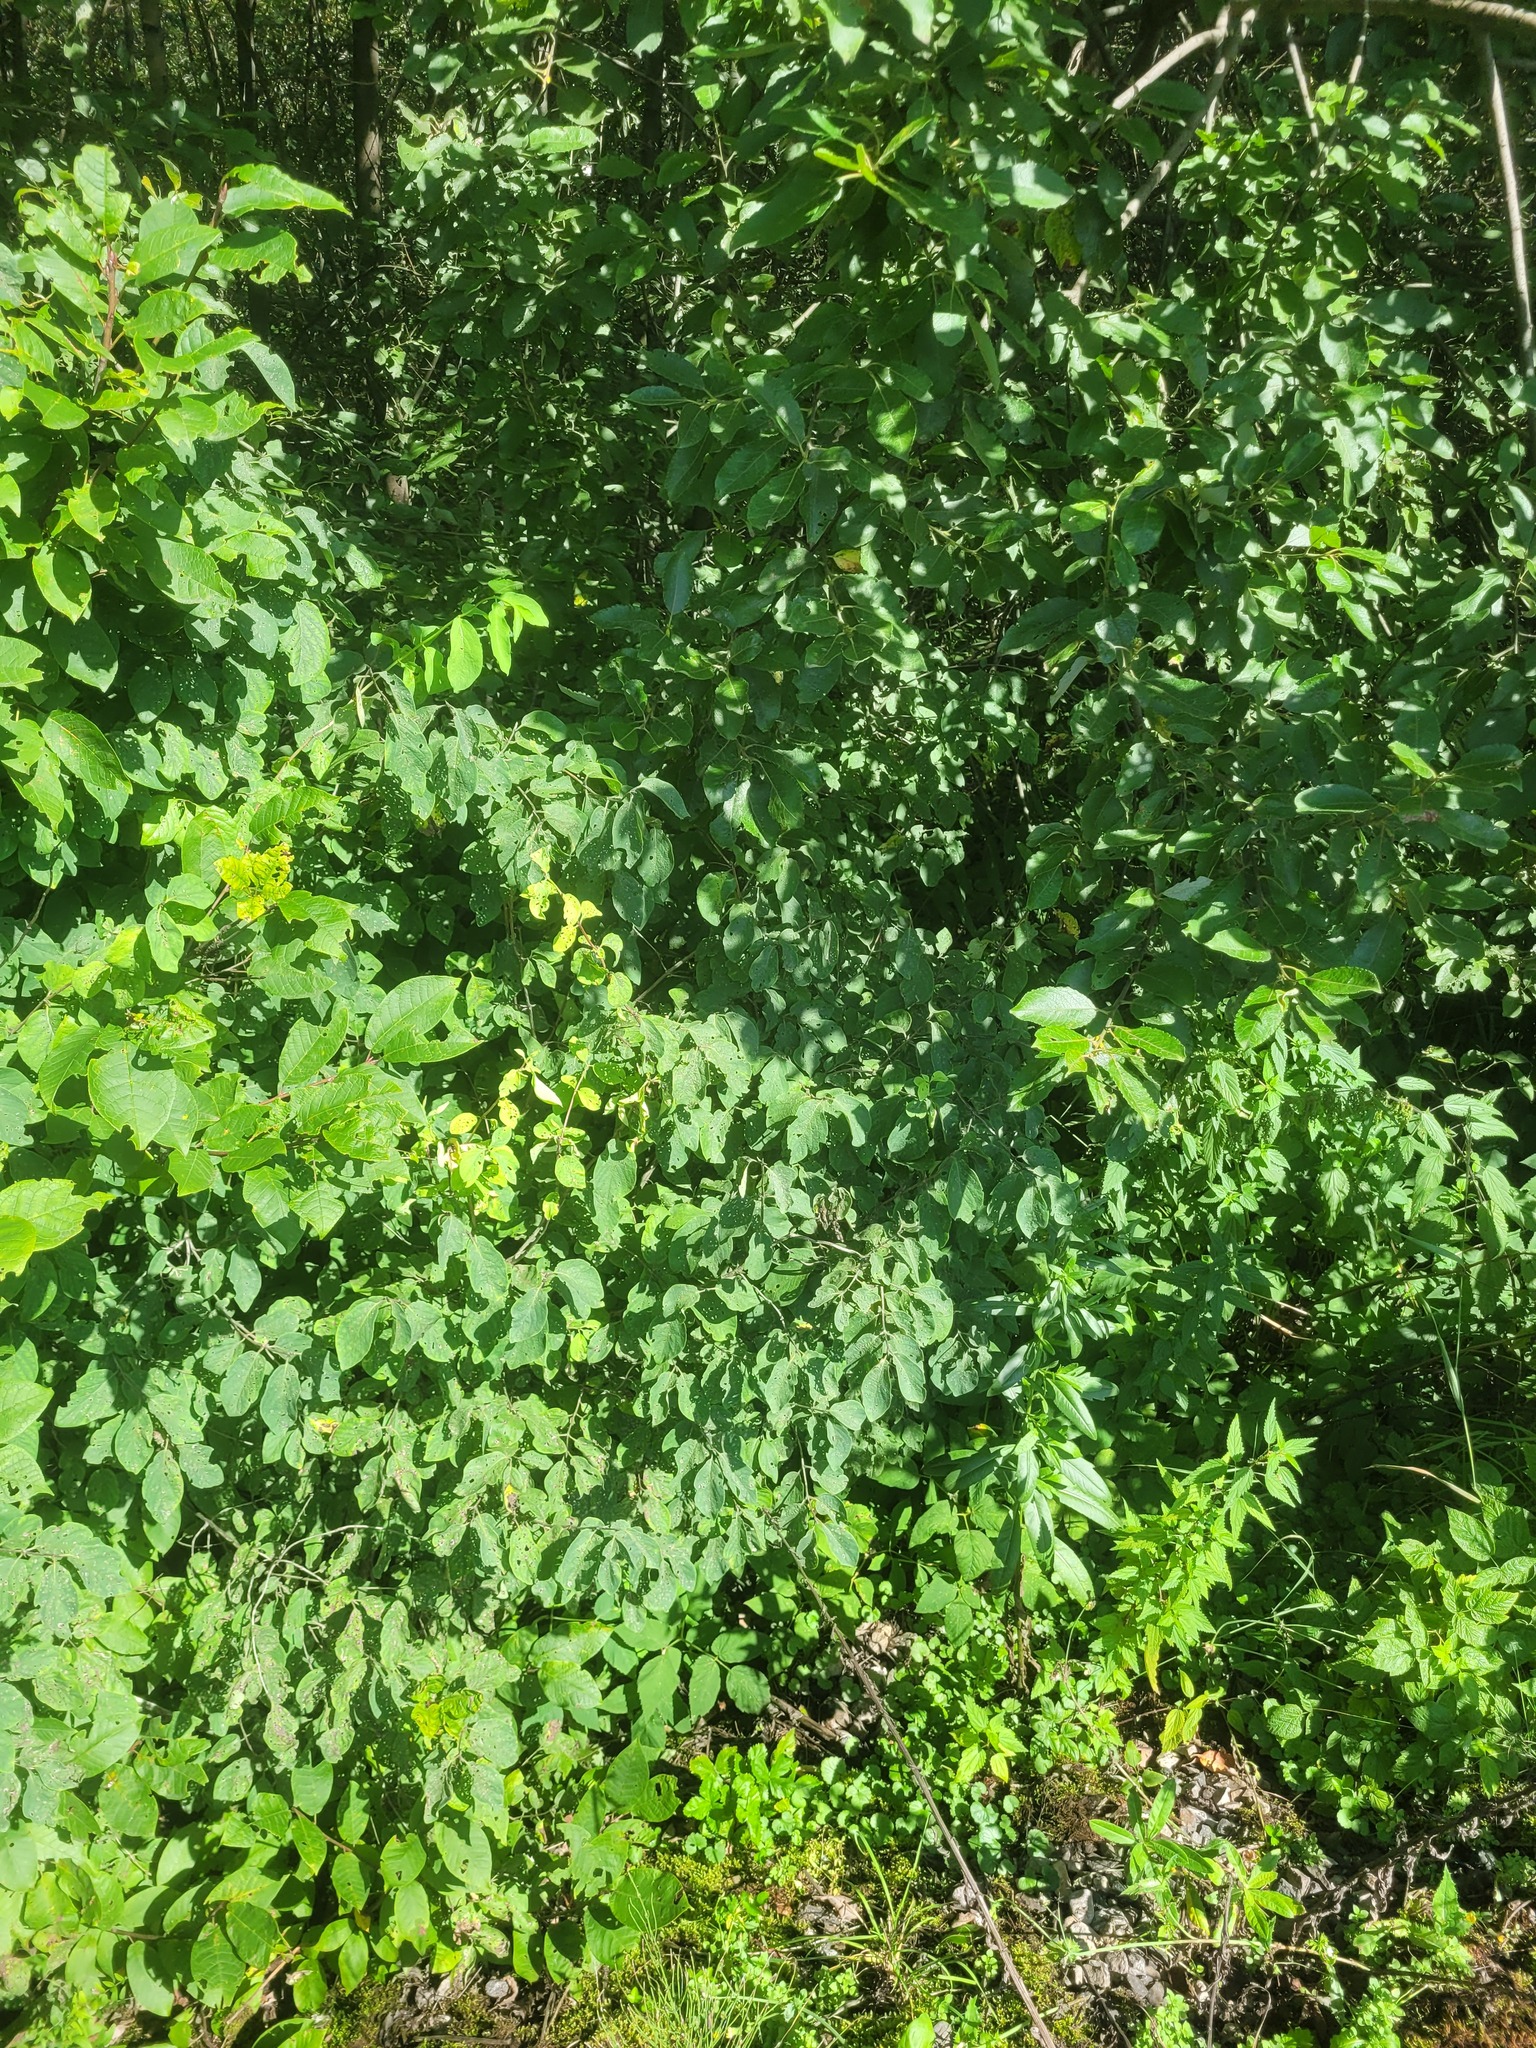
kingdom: Plantae
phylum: Tracheophyta
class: Magnoliopsida
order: Dipsacales
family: Caprifoliaceae
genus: Lonicera
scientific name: Lonicera xylosteum
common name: Fly honeysuckle
